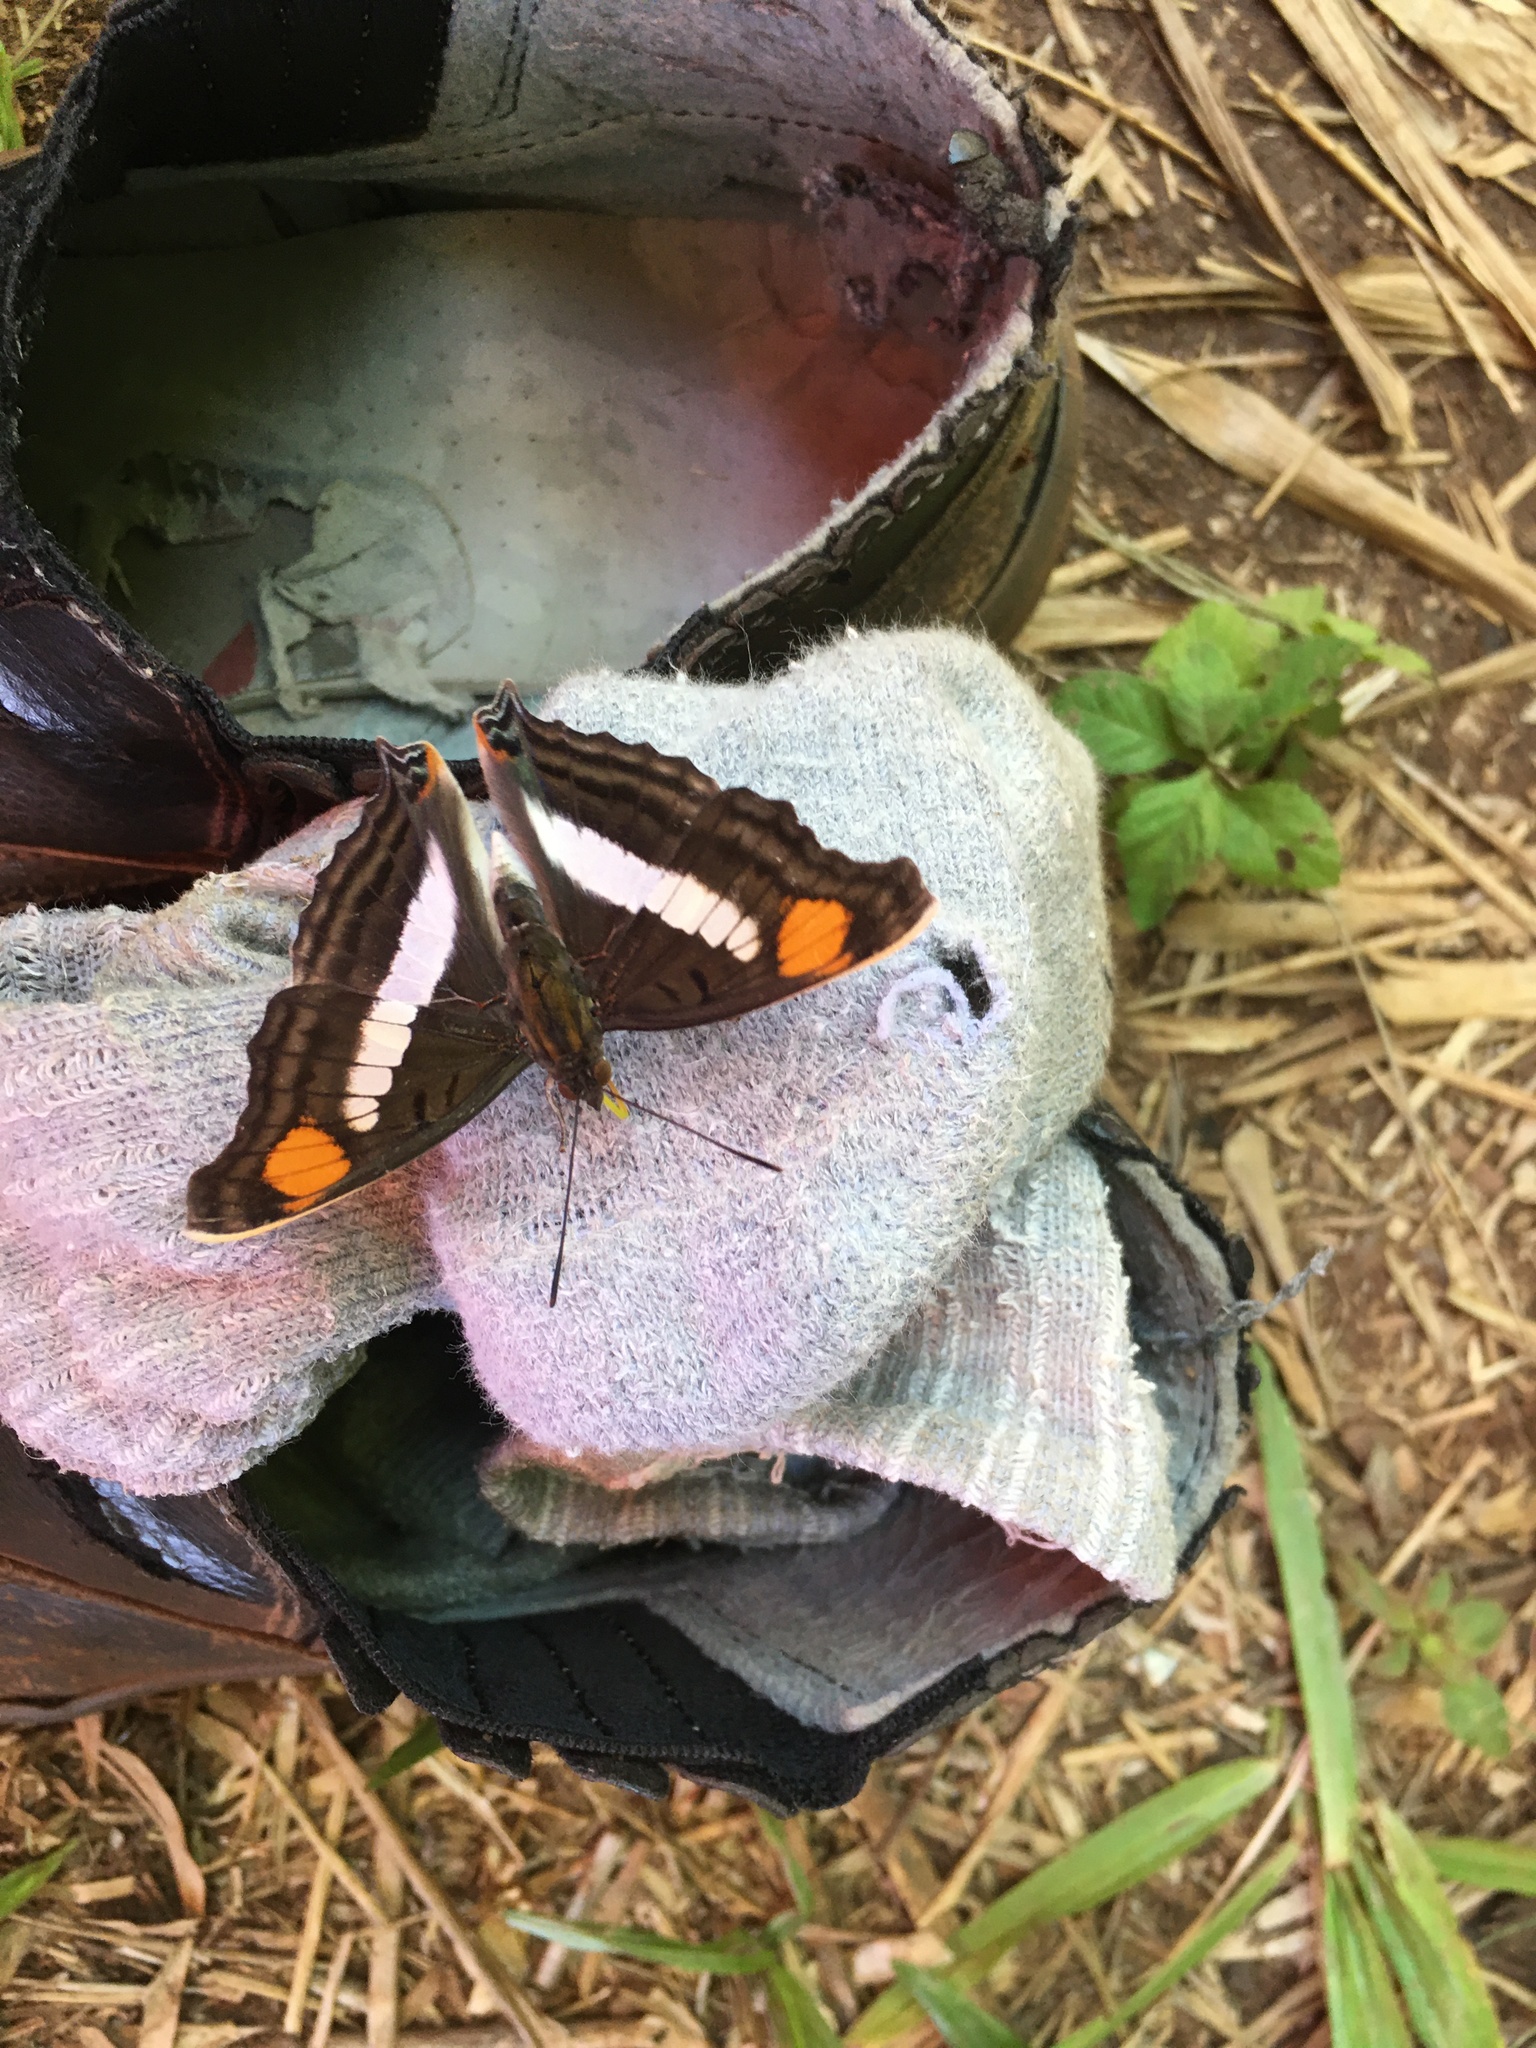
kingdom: Animalia
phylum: Arthropoda
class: Insecta
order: Lepidoptera
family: Nymphalidae
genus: Doxocopa
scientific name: Doxocopa linda
